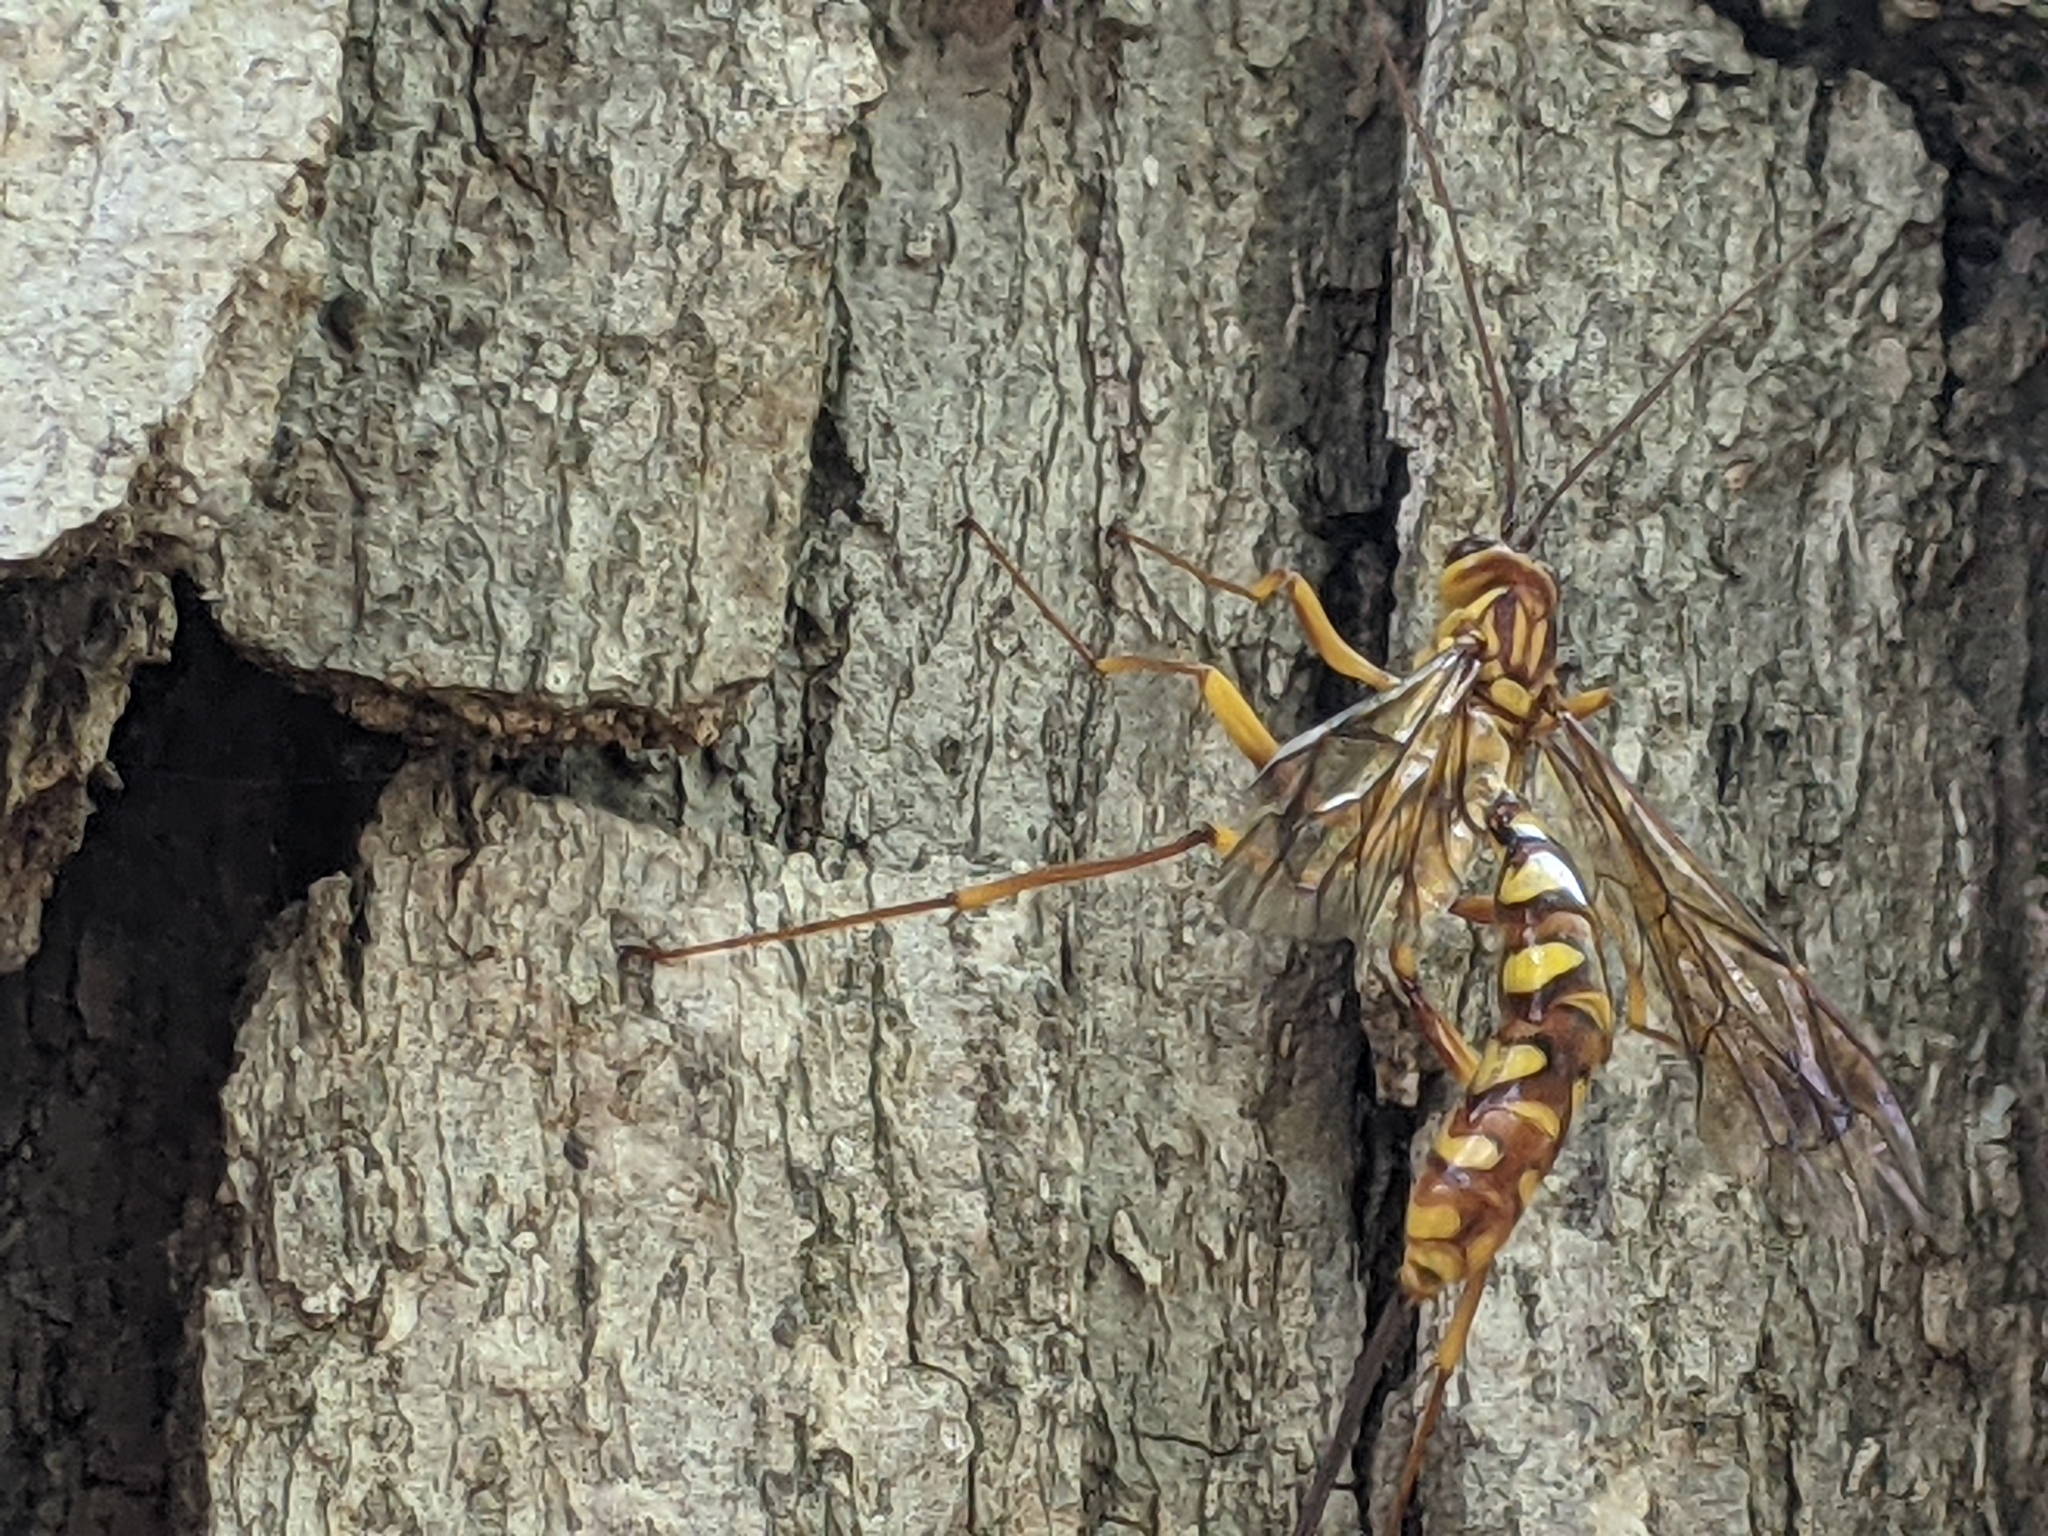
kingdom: Animalia
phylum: Arthropoda
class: Insecta
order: Hymenoptera
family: Ichneumonidae
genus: Megarhyssa
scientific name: Megarhyssa greenei
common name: Greene's giant ichneumonid wasp
